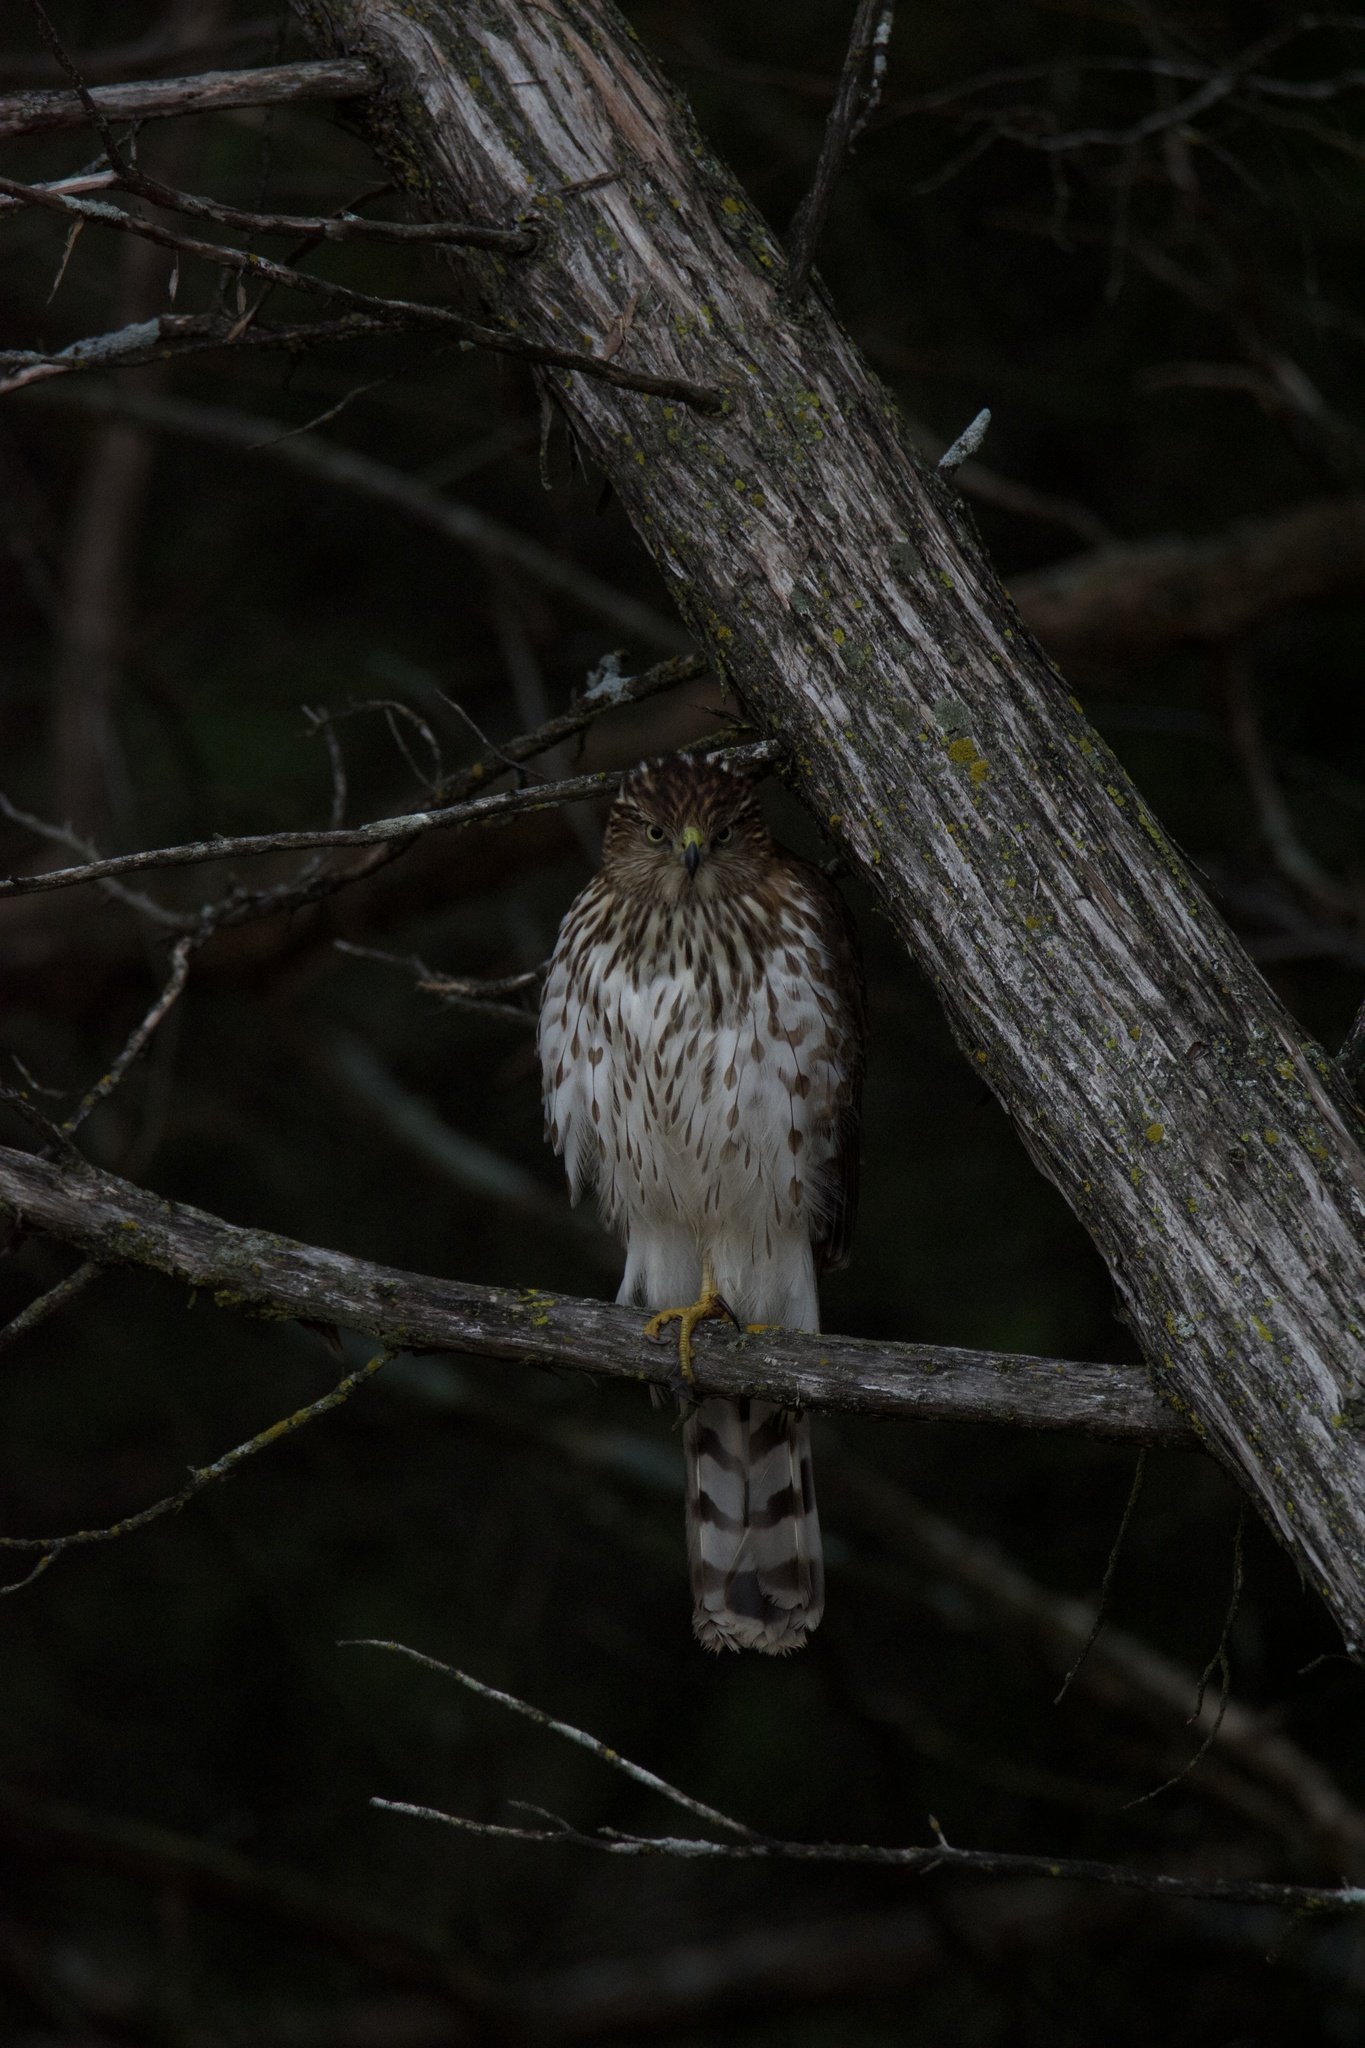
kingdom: Animalia
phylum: Chordata
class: Aves
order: Accipitriformes
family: Accipitridae
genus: Accipiter
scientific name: Accipiter cooperii
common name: Cooper's hawk
